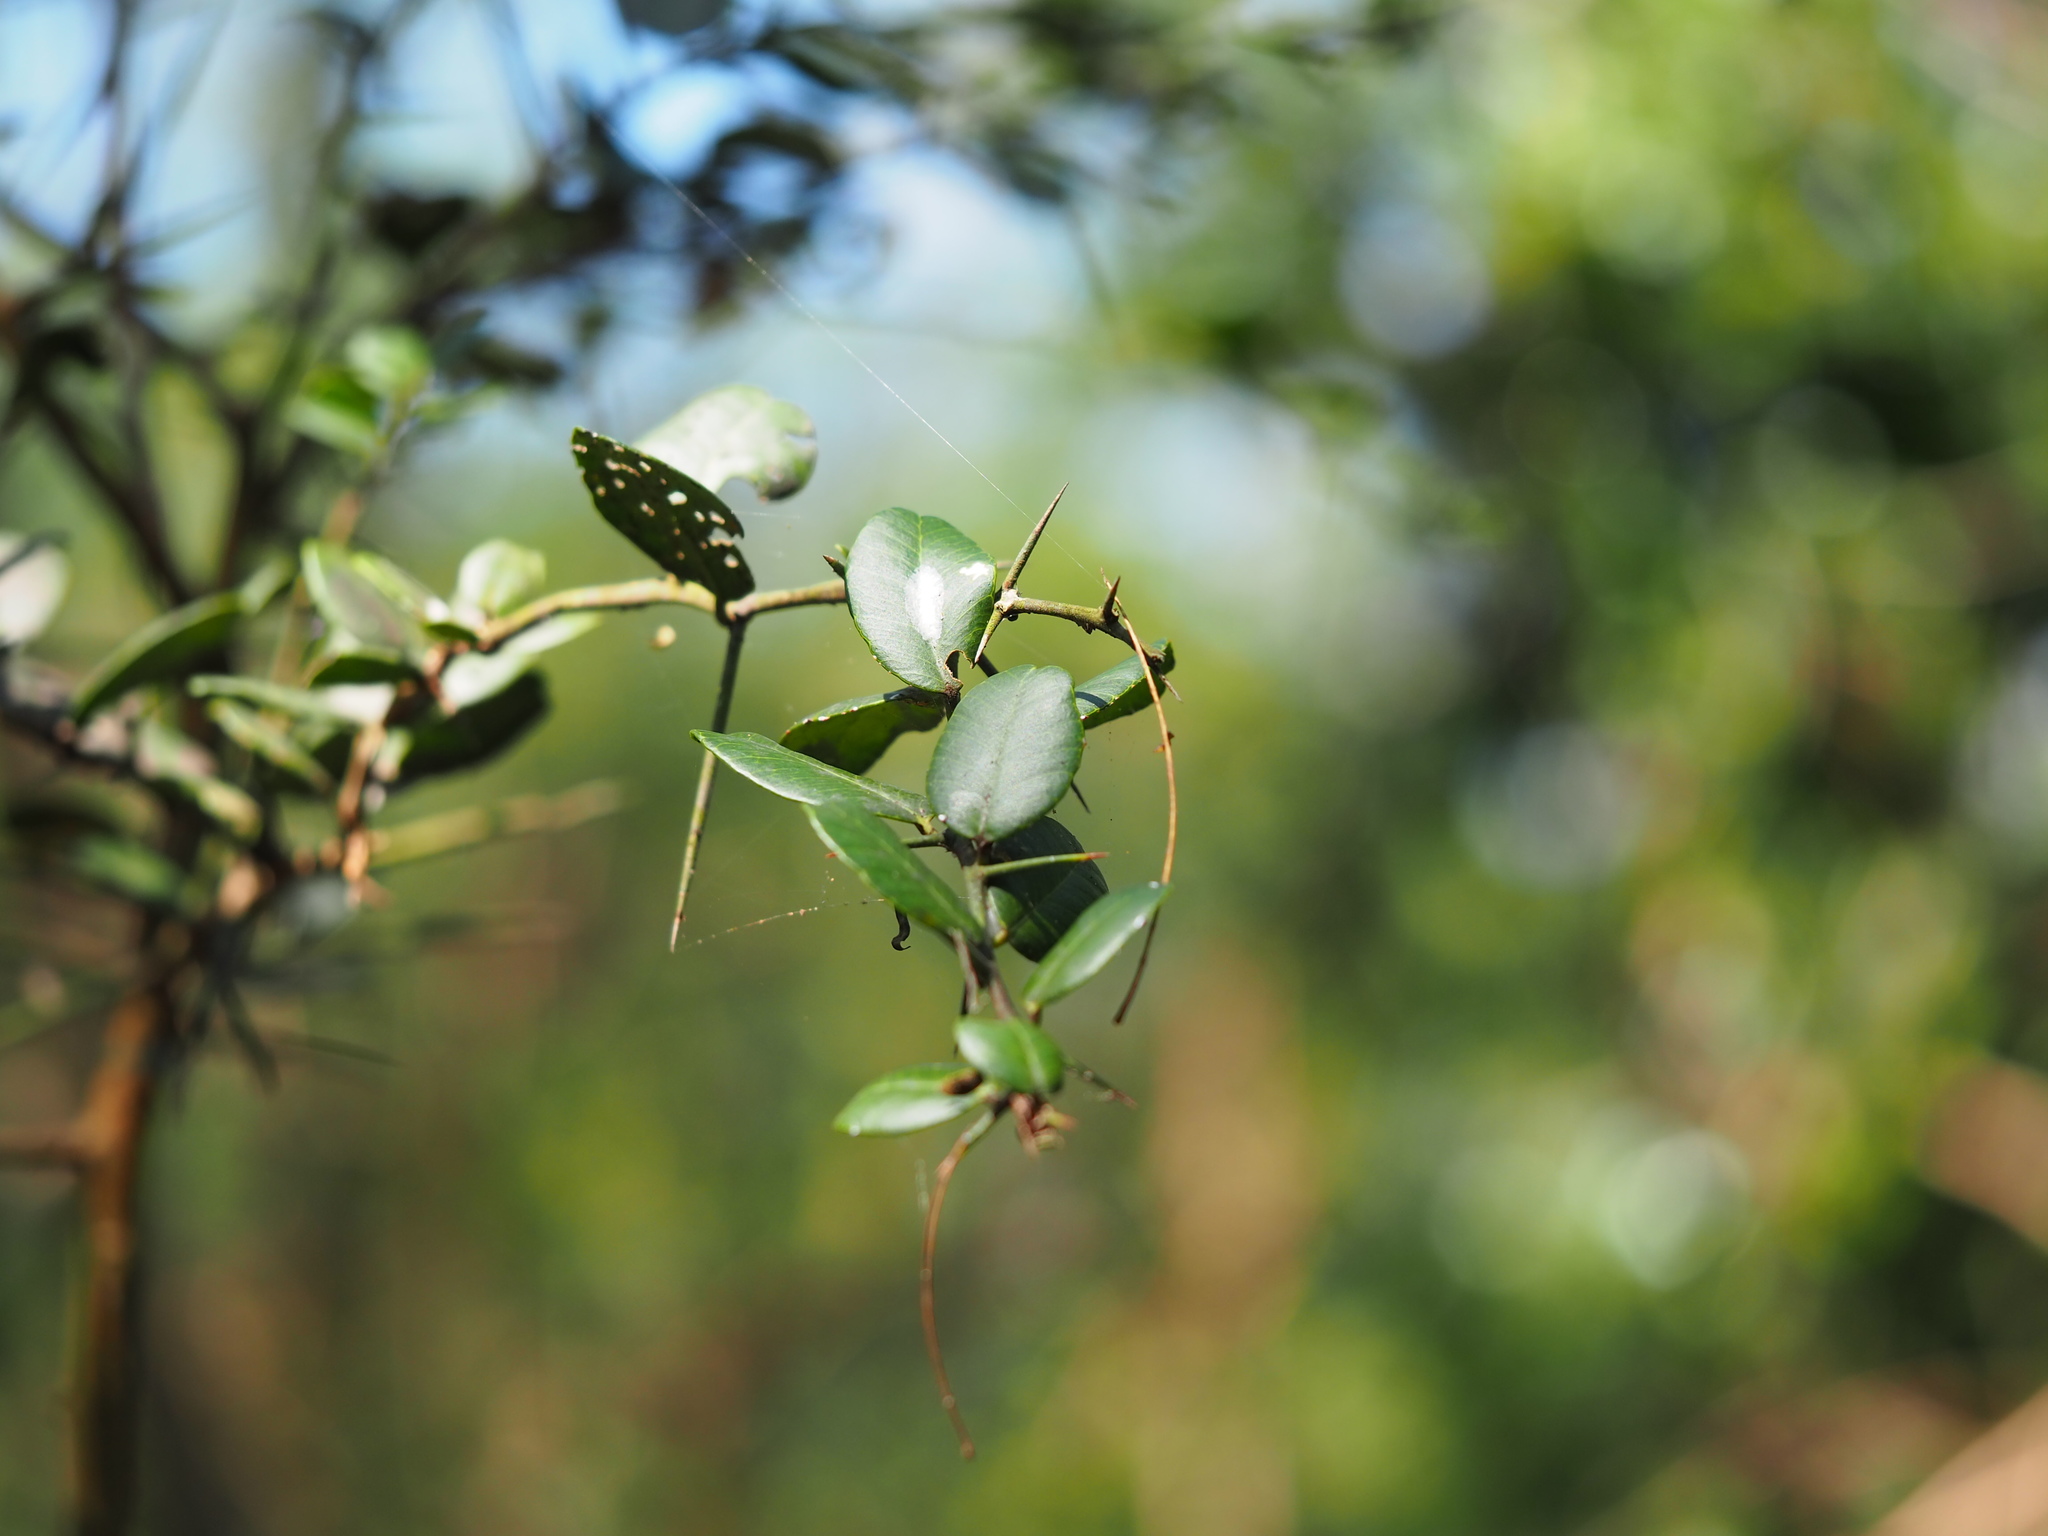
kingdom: Plantae
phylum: Tracheophyta
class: Magnoliopsida
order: Sapindales
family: Rutaceae
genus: Atalantia
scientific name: Atalantia buxifolia
